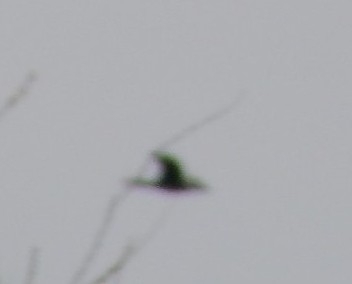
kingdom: Animalia
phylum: Chordata
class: Aves
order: Suliformes
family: Phalacrocoracidae
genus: Phalacrocorax
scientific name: Phalacrocorax auritus
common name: Double-crested cormorant
